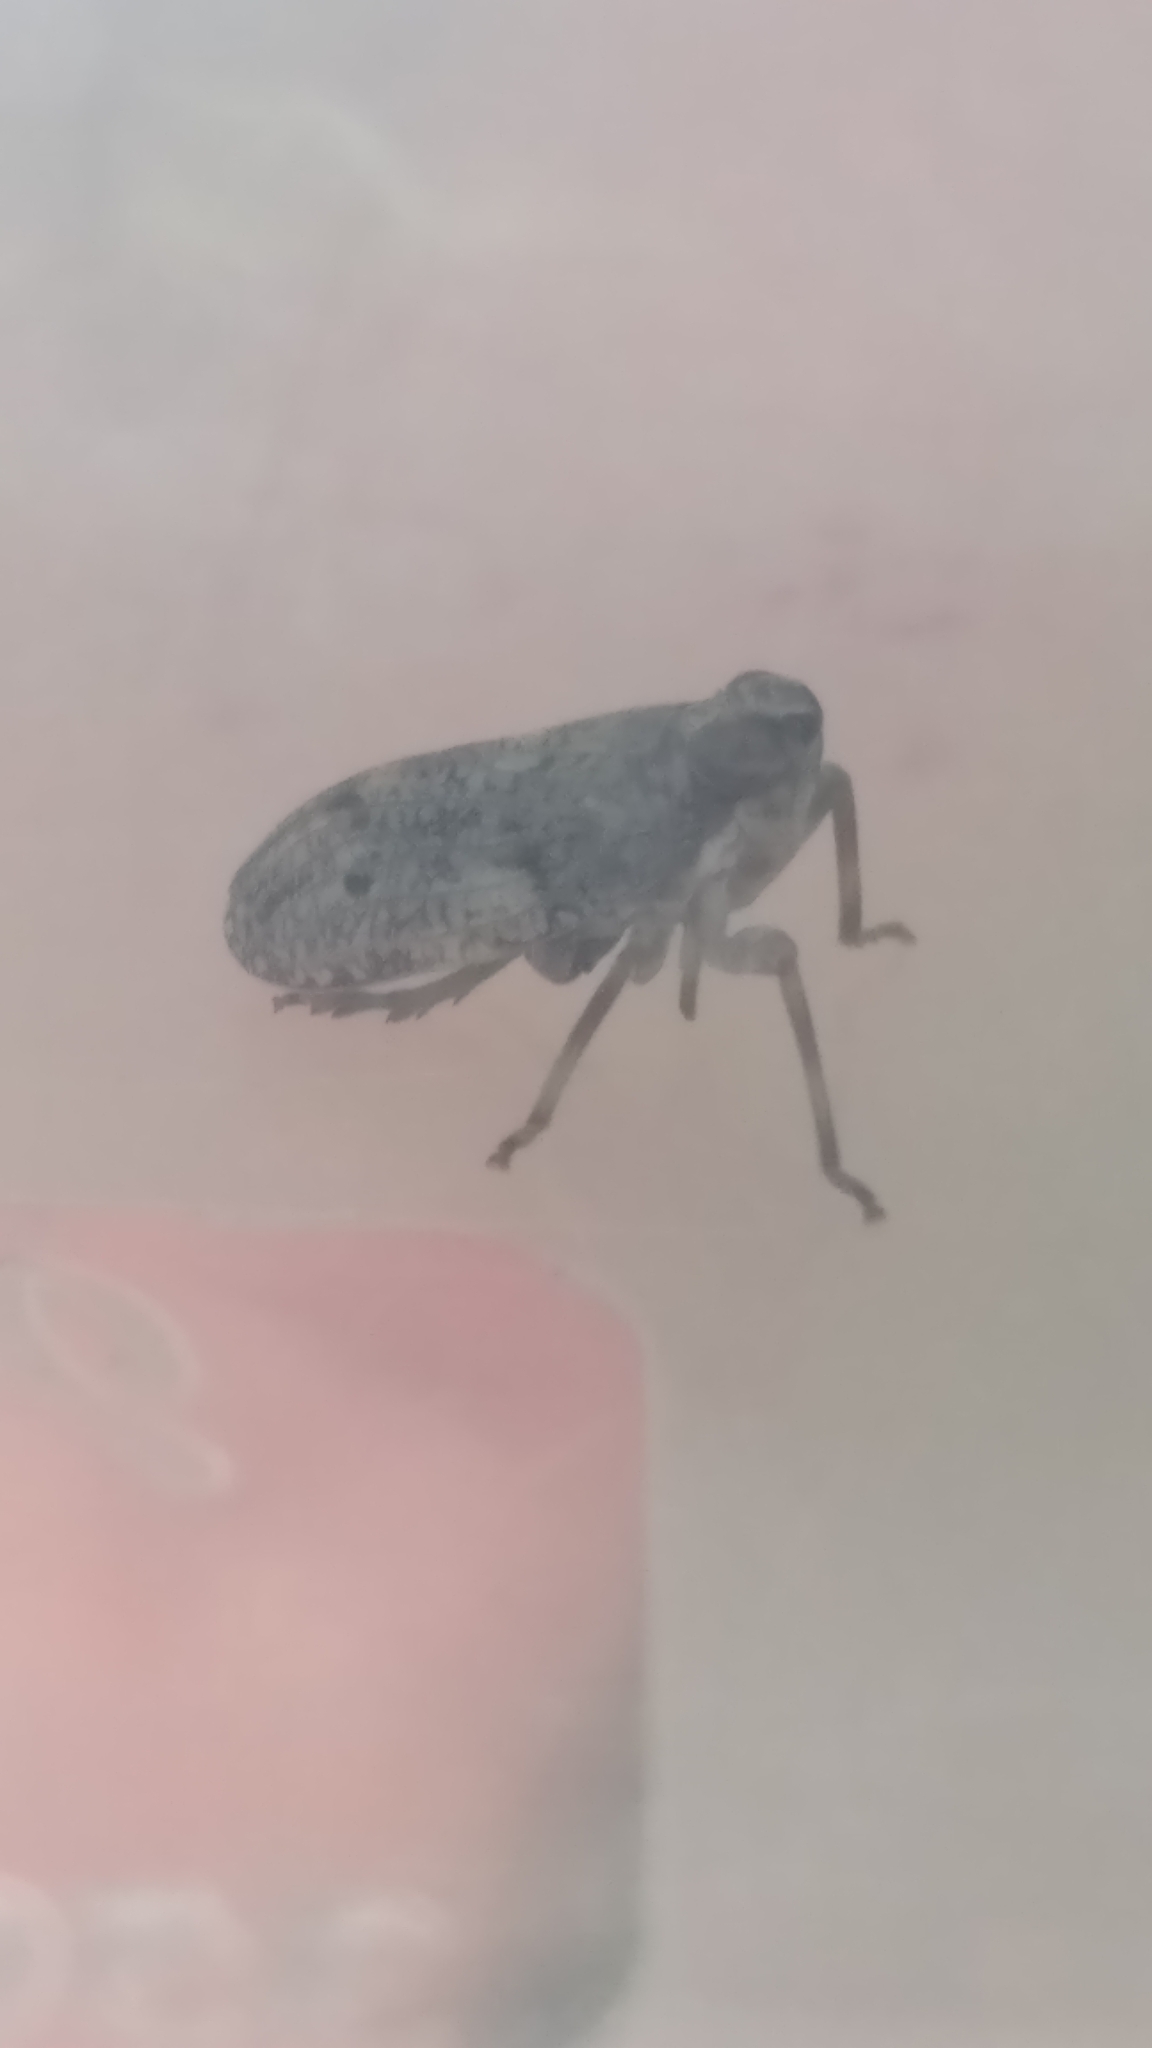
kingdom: Animalia
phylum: Arthropoda
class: Insecta
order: Hemiptera
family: Issidae
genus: Issus
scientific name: Issus coleoptratus
